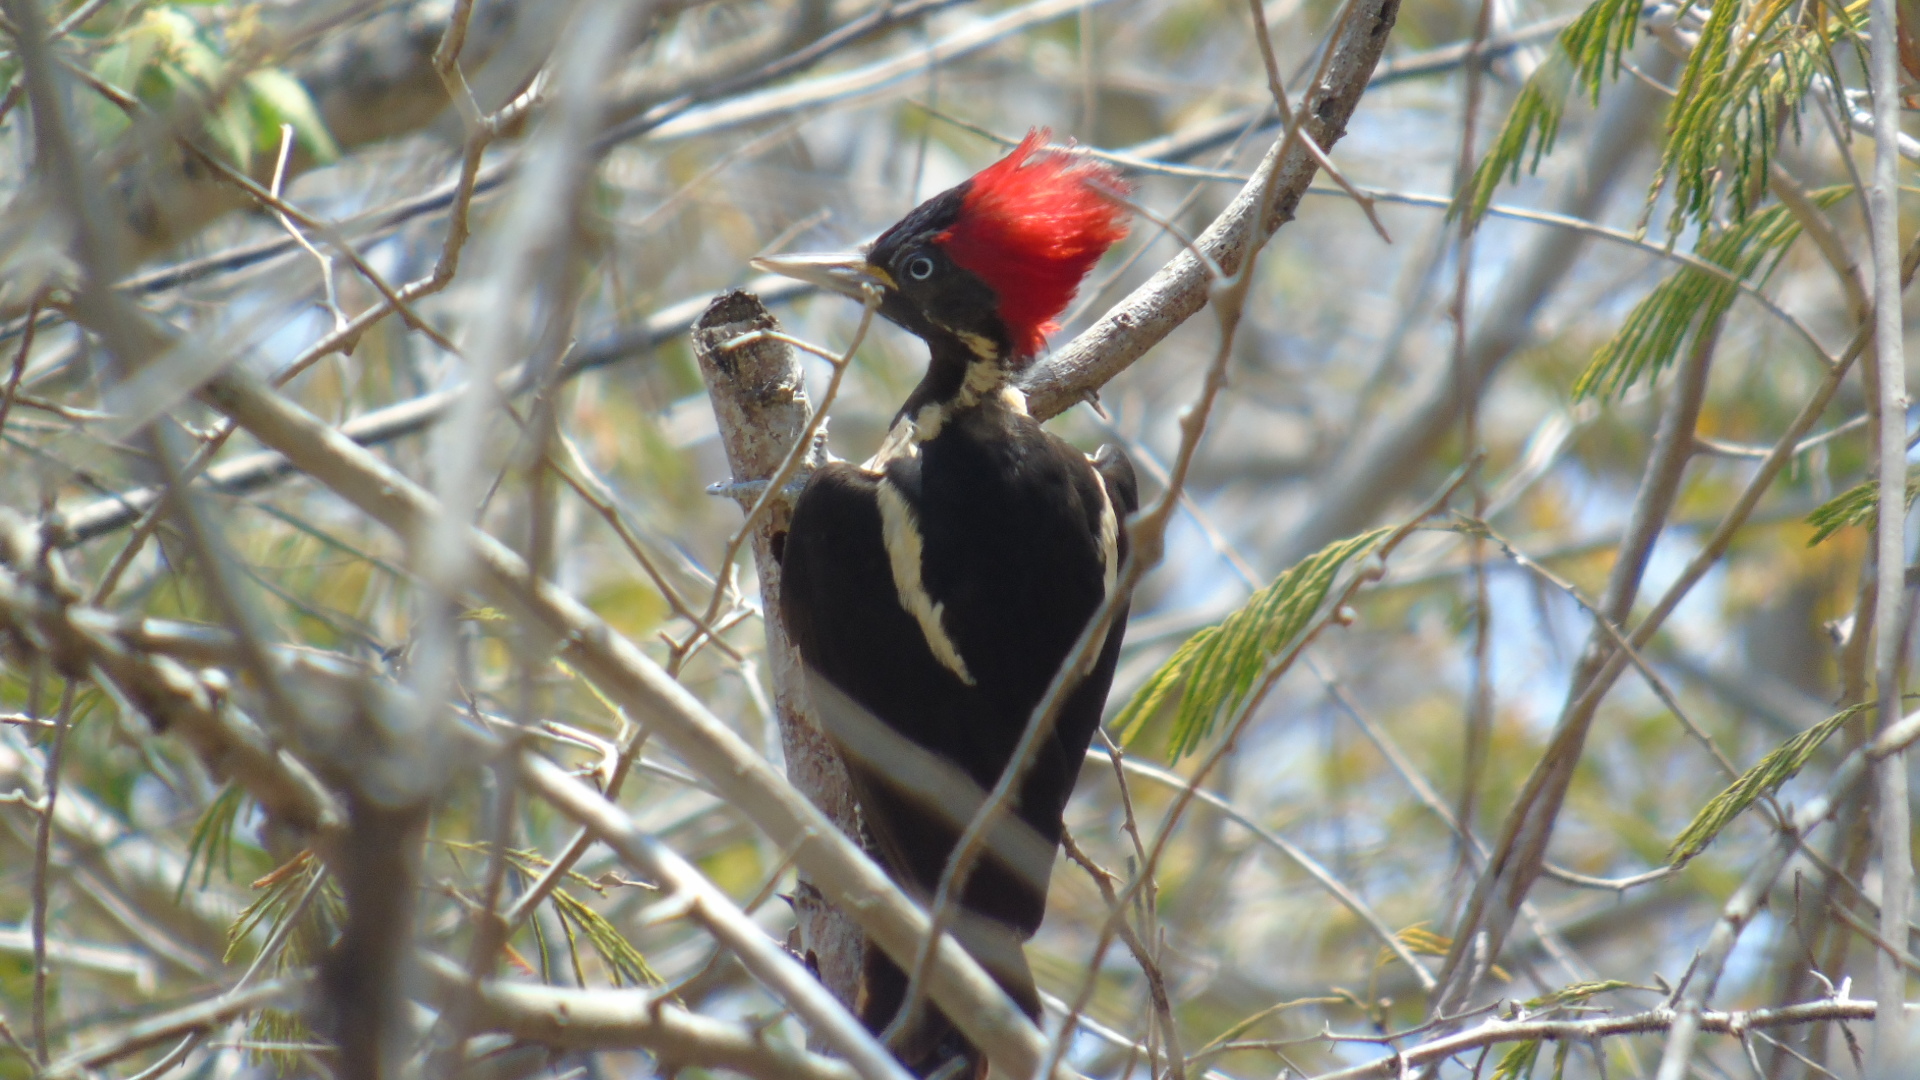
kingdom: Animalia
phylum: Chordata
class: Aves
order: Piciformes
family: Picidae
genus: Dryocopus
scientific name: Dryocopus lineatus
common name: Lineated woodpecker
